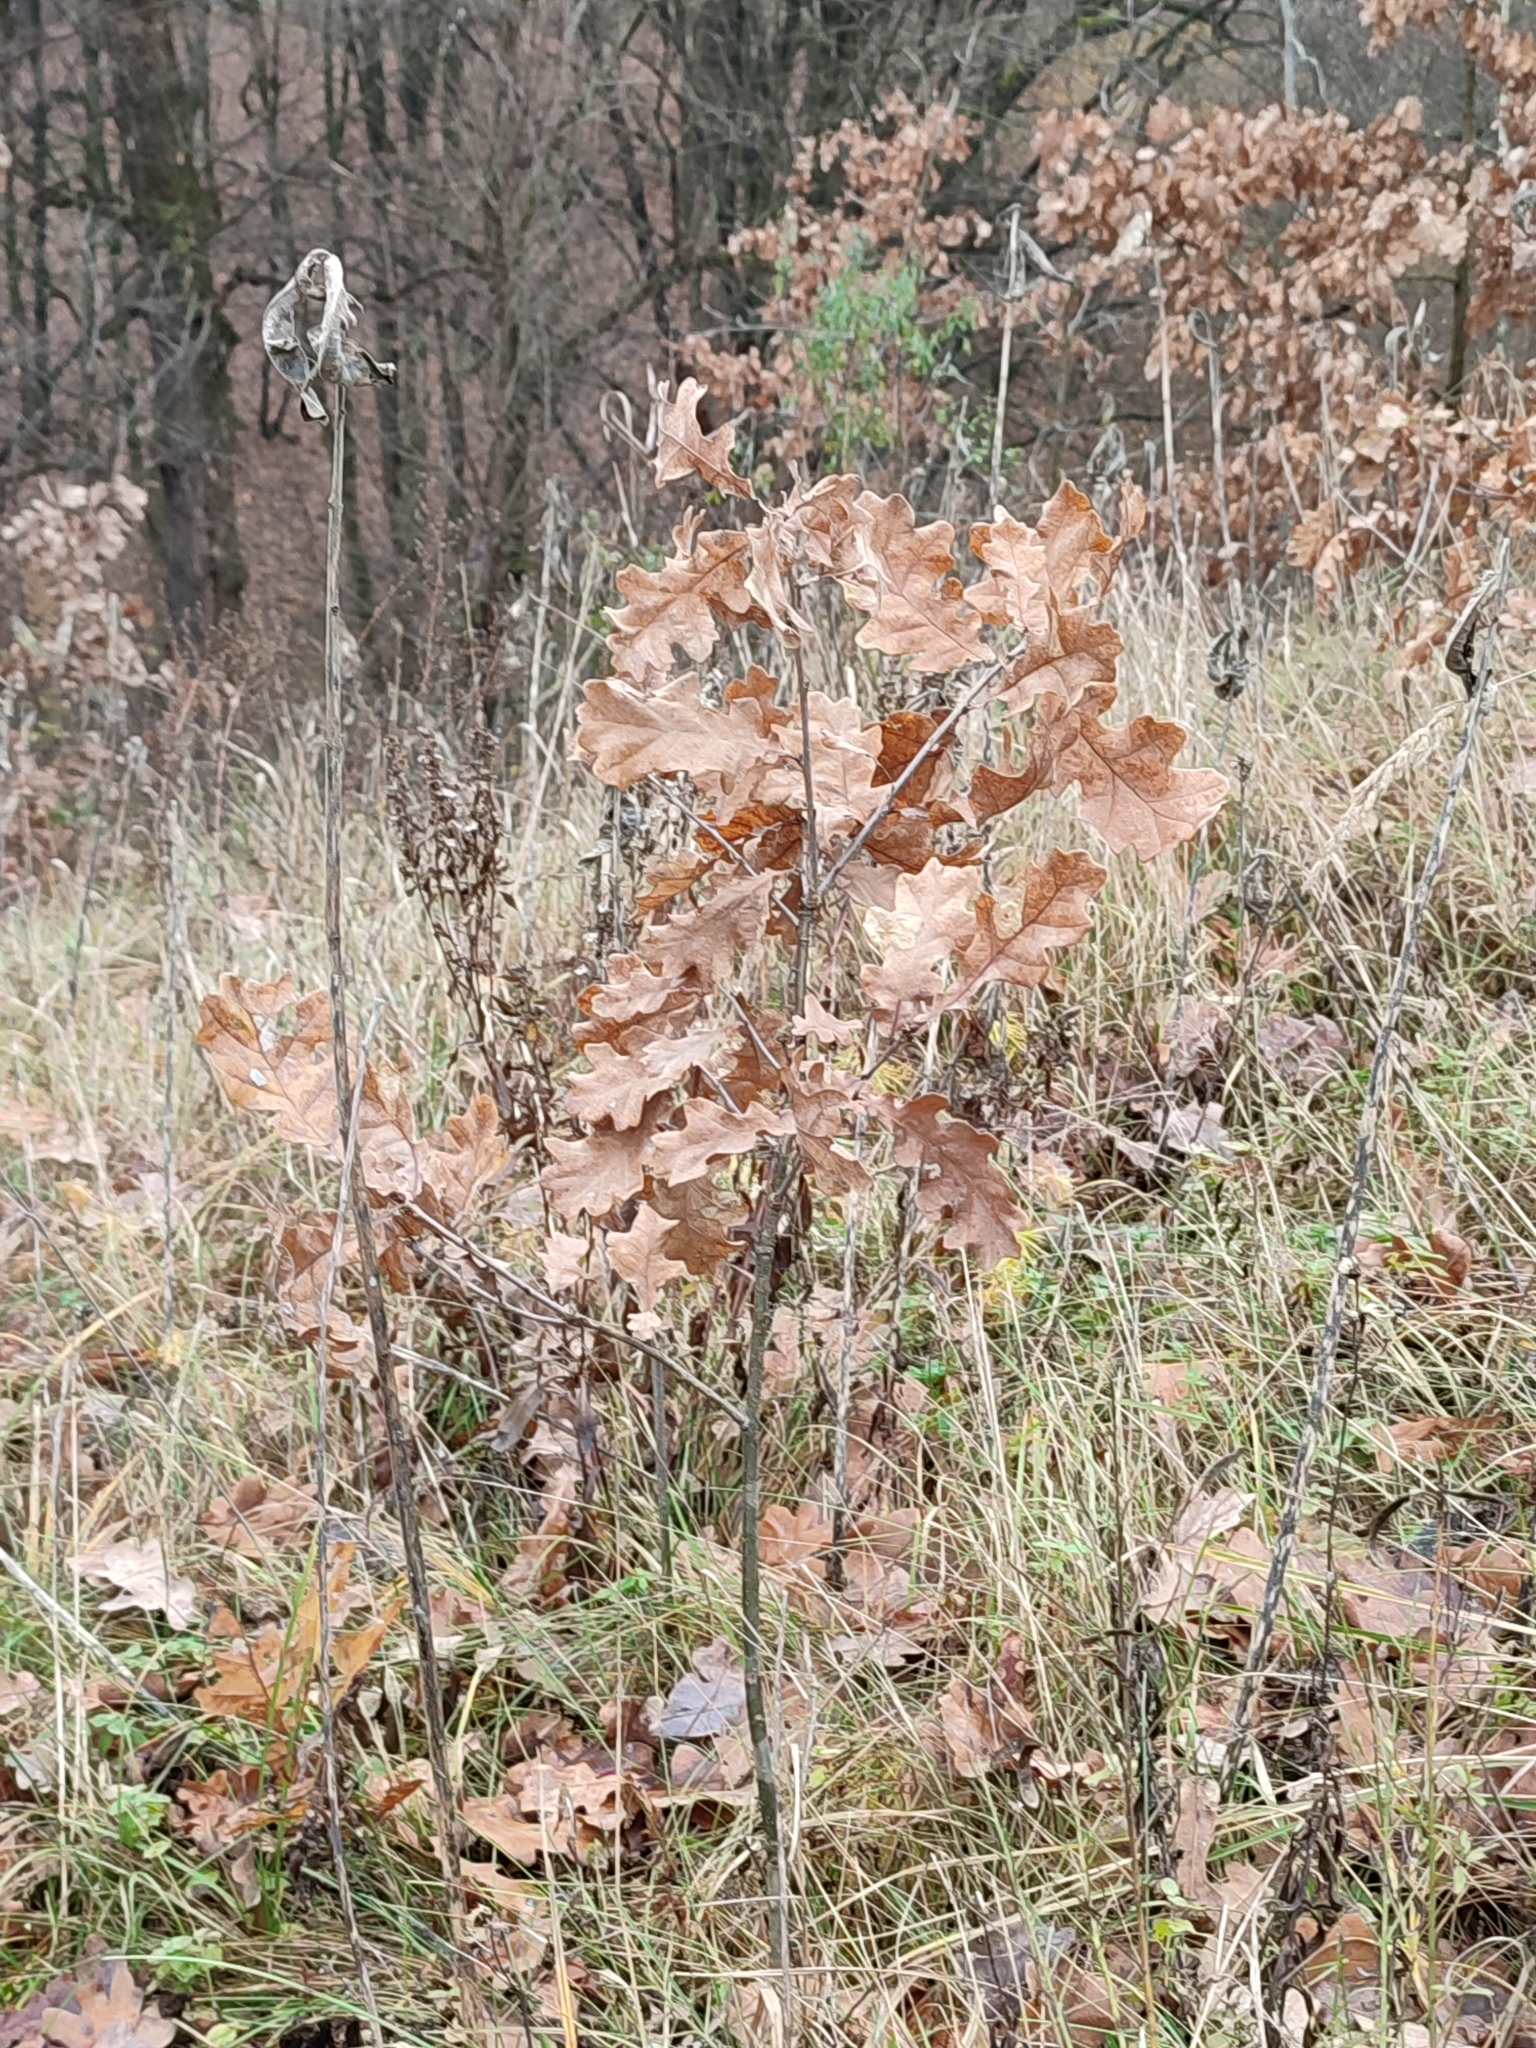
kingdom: Plantae
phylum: Tracheophyta
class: Magnoliopsida
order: Fagales
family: Fagaceae
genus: Quercus
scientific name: Quercus robur
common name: Pedunculate oak
